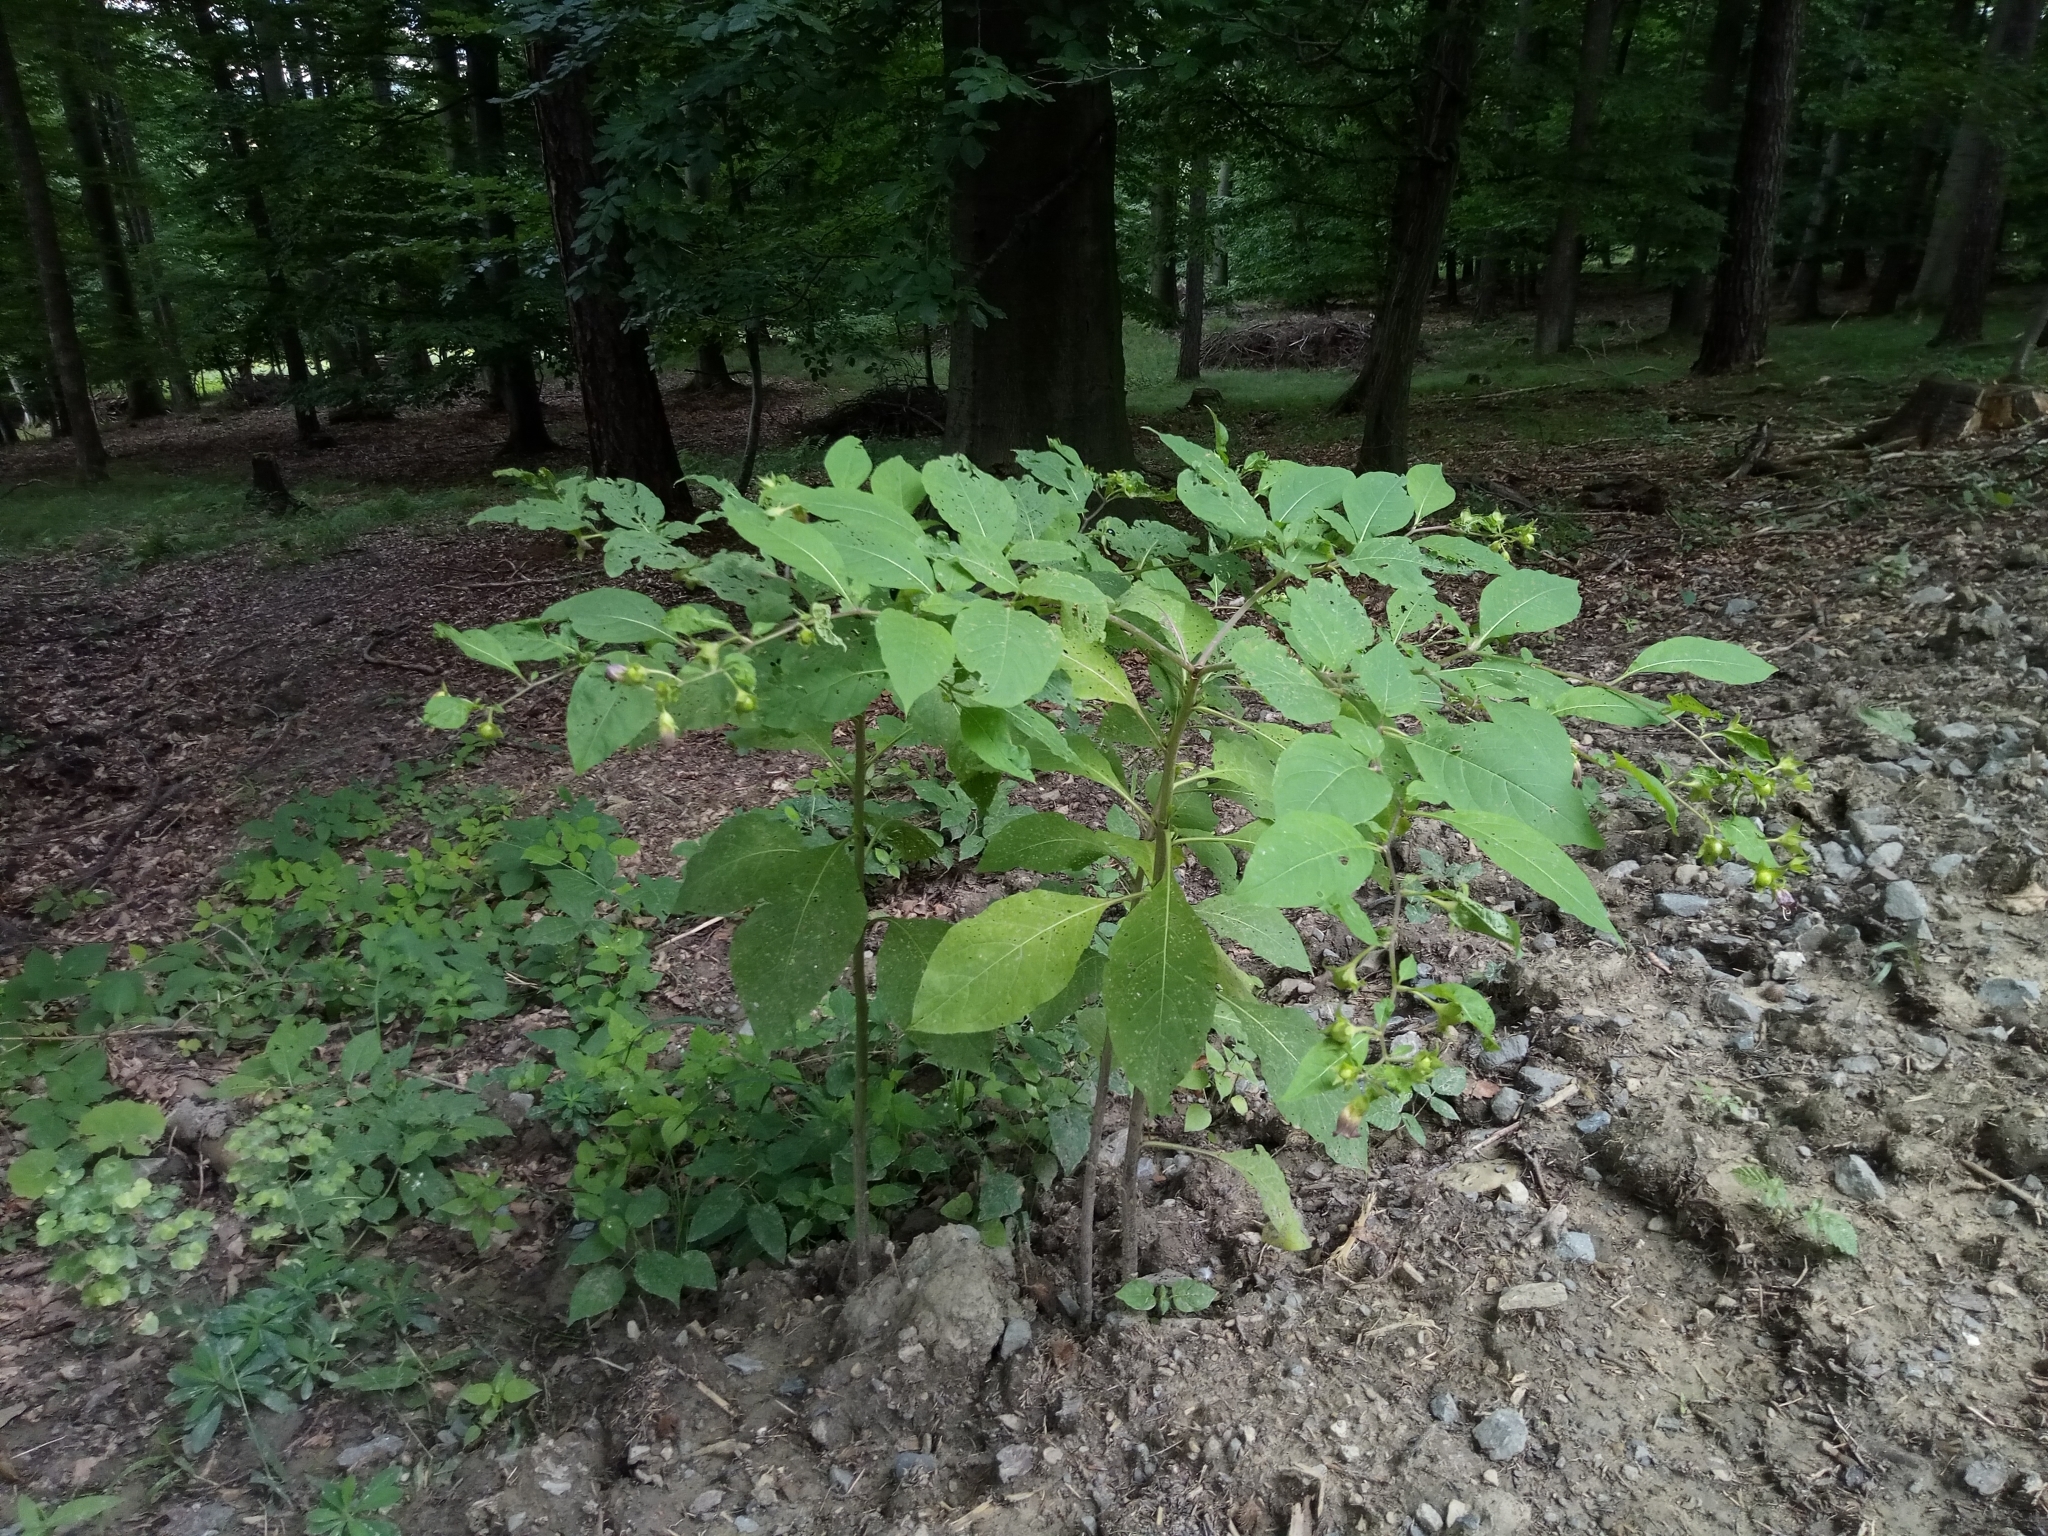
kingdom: Plantae
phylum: Tracheophyta
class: Magnoliopsida
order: Solanales
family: Solanaceae
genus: Atropa
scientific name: Atropa belladonna
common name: Deadly nightshade
